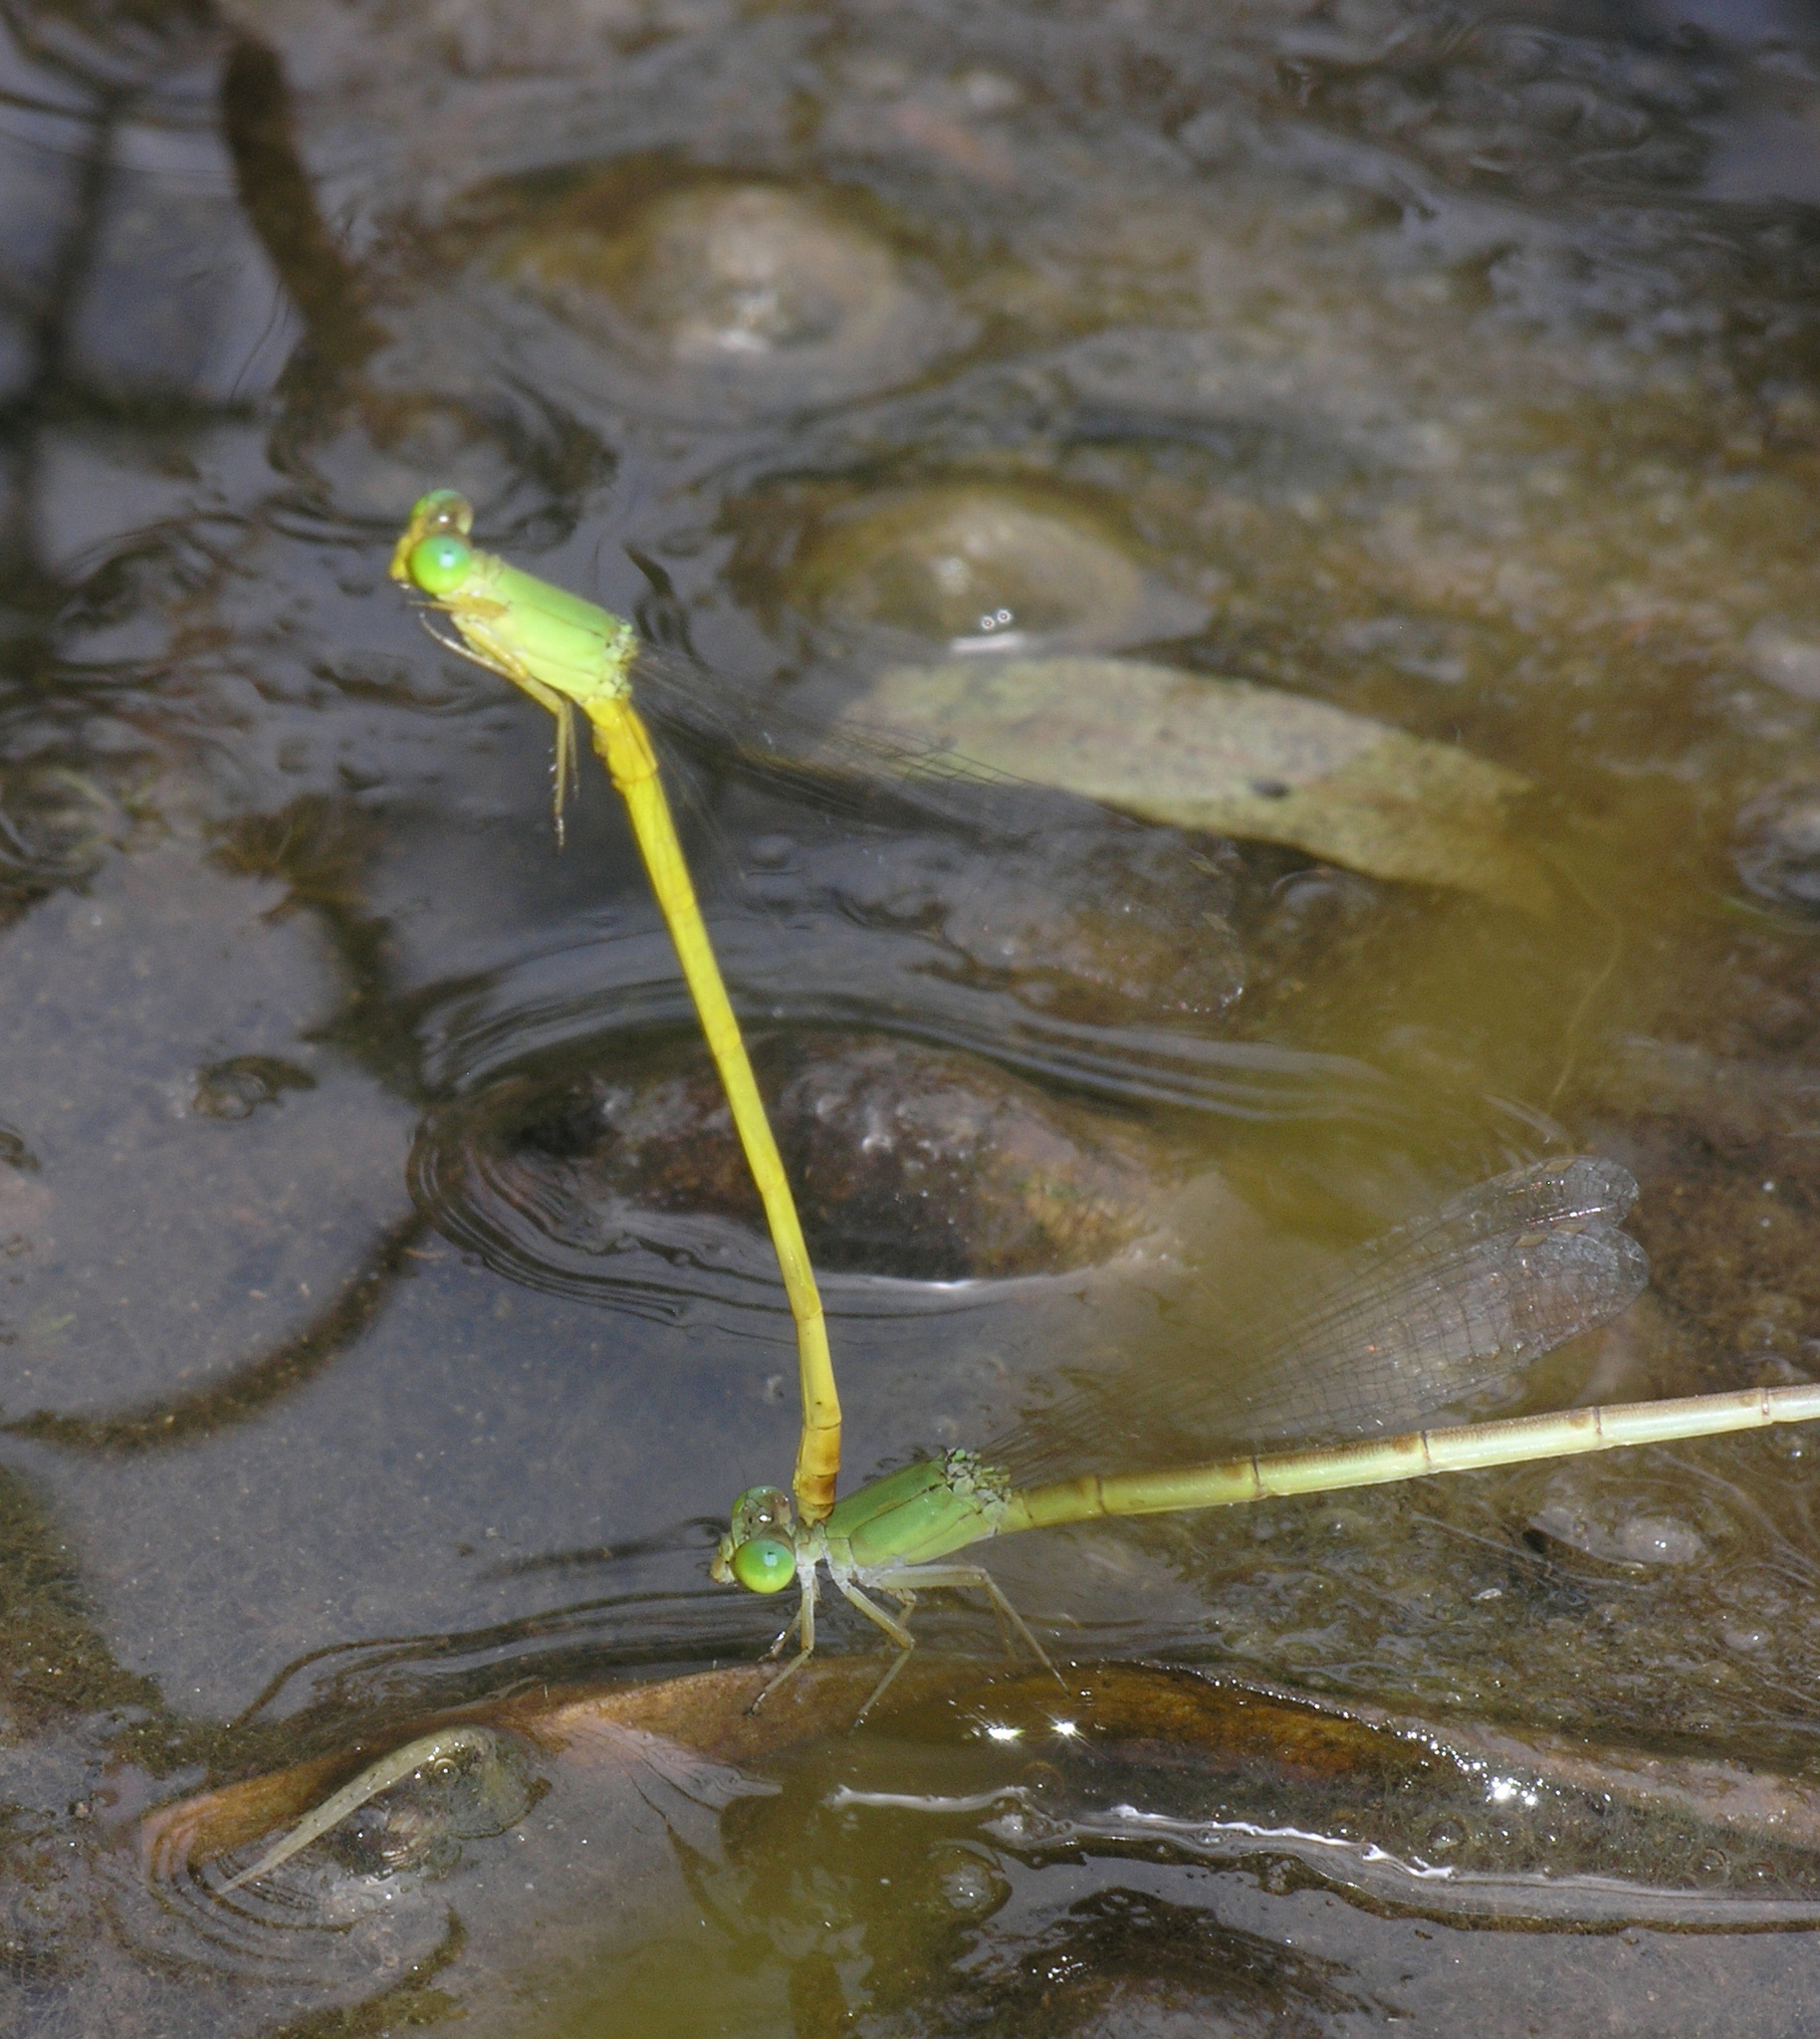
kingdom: Animalia
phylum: Arthropoda
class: Insecta
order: Odonata
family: Coenagrionidae
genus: Ceriagrion
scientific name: Ceriagrion indochinense
